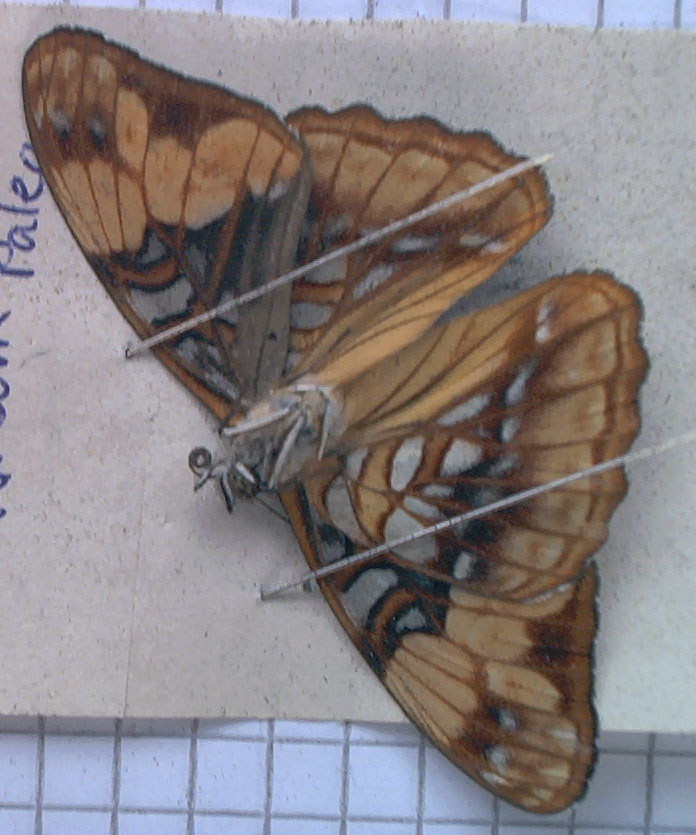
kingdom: Animalia
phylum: Arthropoda
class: Insecta
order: Lepidoptera
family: Nymphalidae
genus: Limenitis
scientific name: Limenitis saundersii
